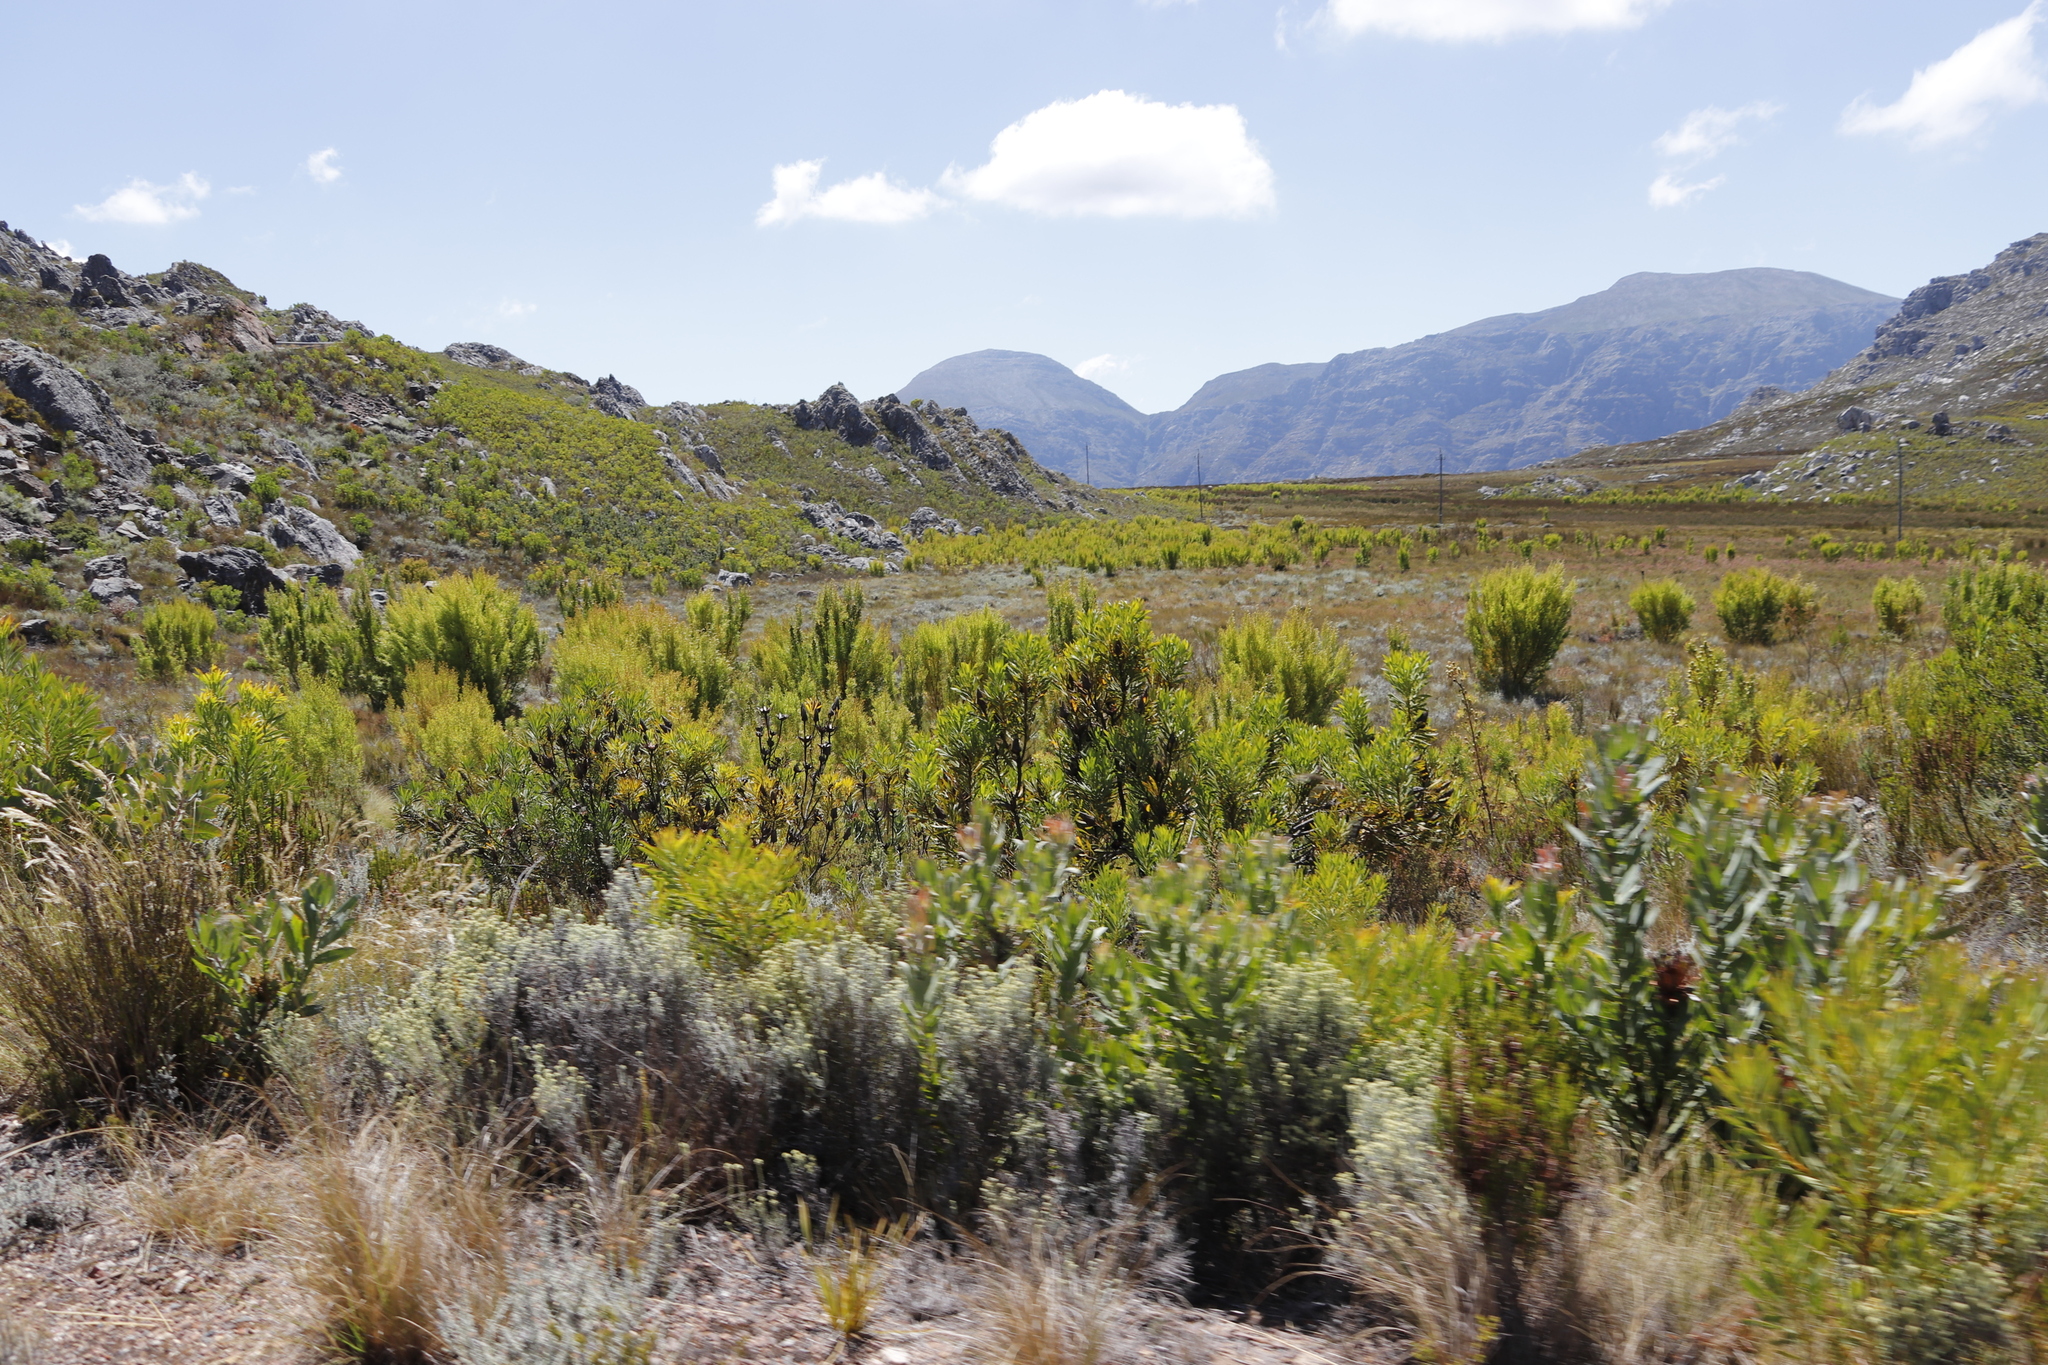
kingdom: Plantae
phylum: Tracheophyta
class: Magnoliopsida
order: Proteales
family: Proteaceae
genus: Leucadendron
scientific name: Leucadendron salicifolium
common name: Common stream conebush
